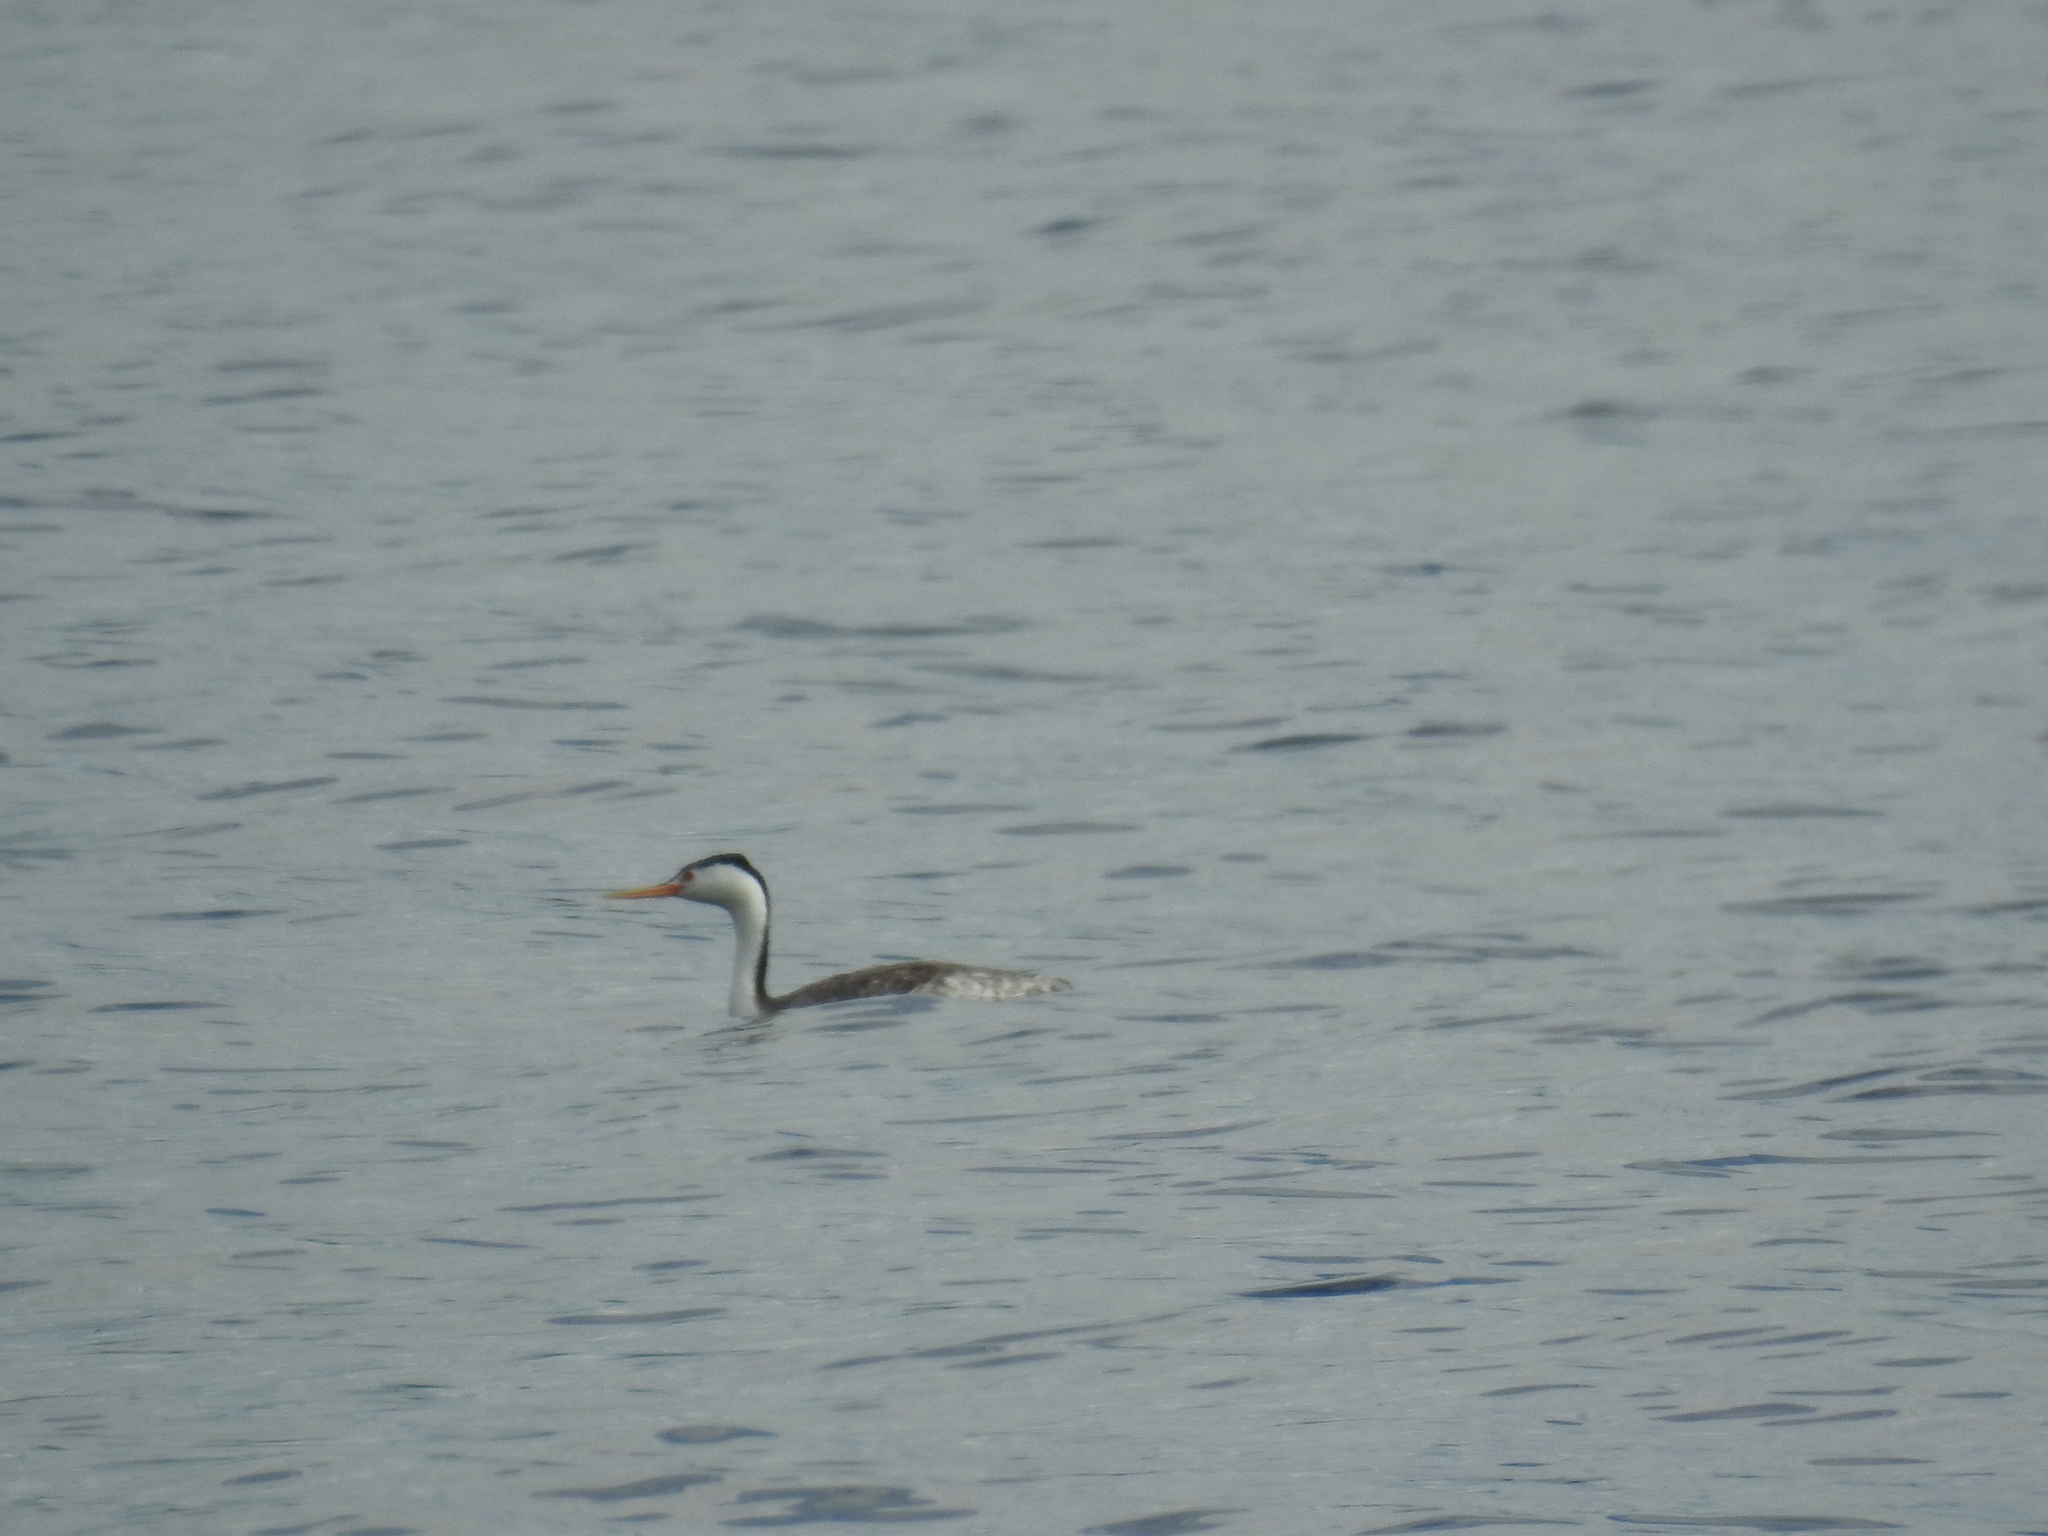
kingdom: Animalia
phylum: Chordata
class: Aves
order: Podicipediformes
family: Podicipedidae
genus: Aechmophorus
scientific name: Aechmophorus clarkii
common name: Clark's grebe
